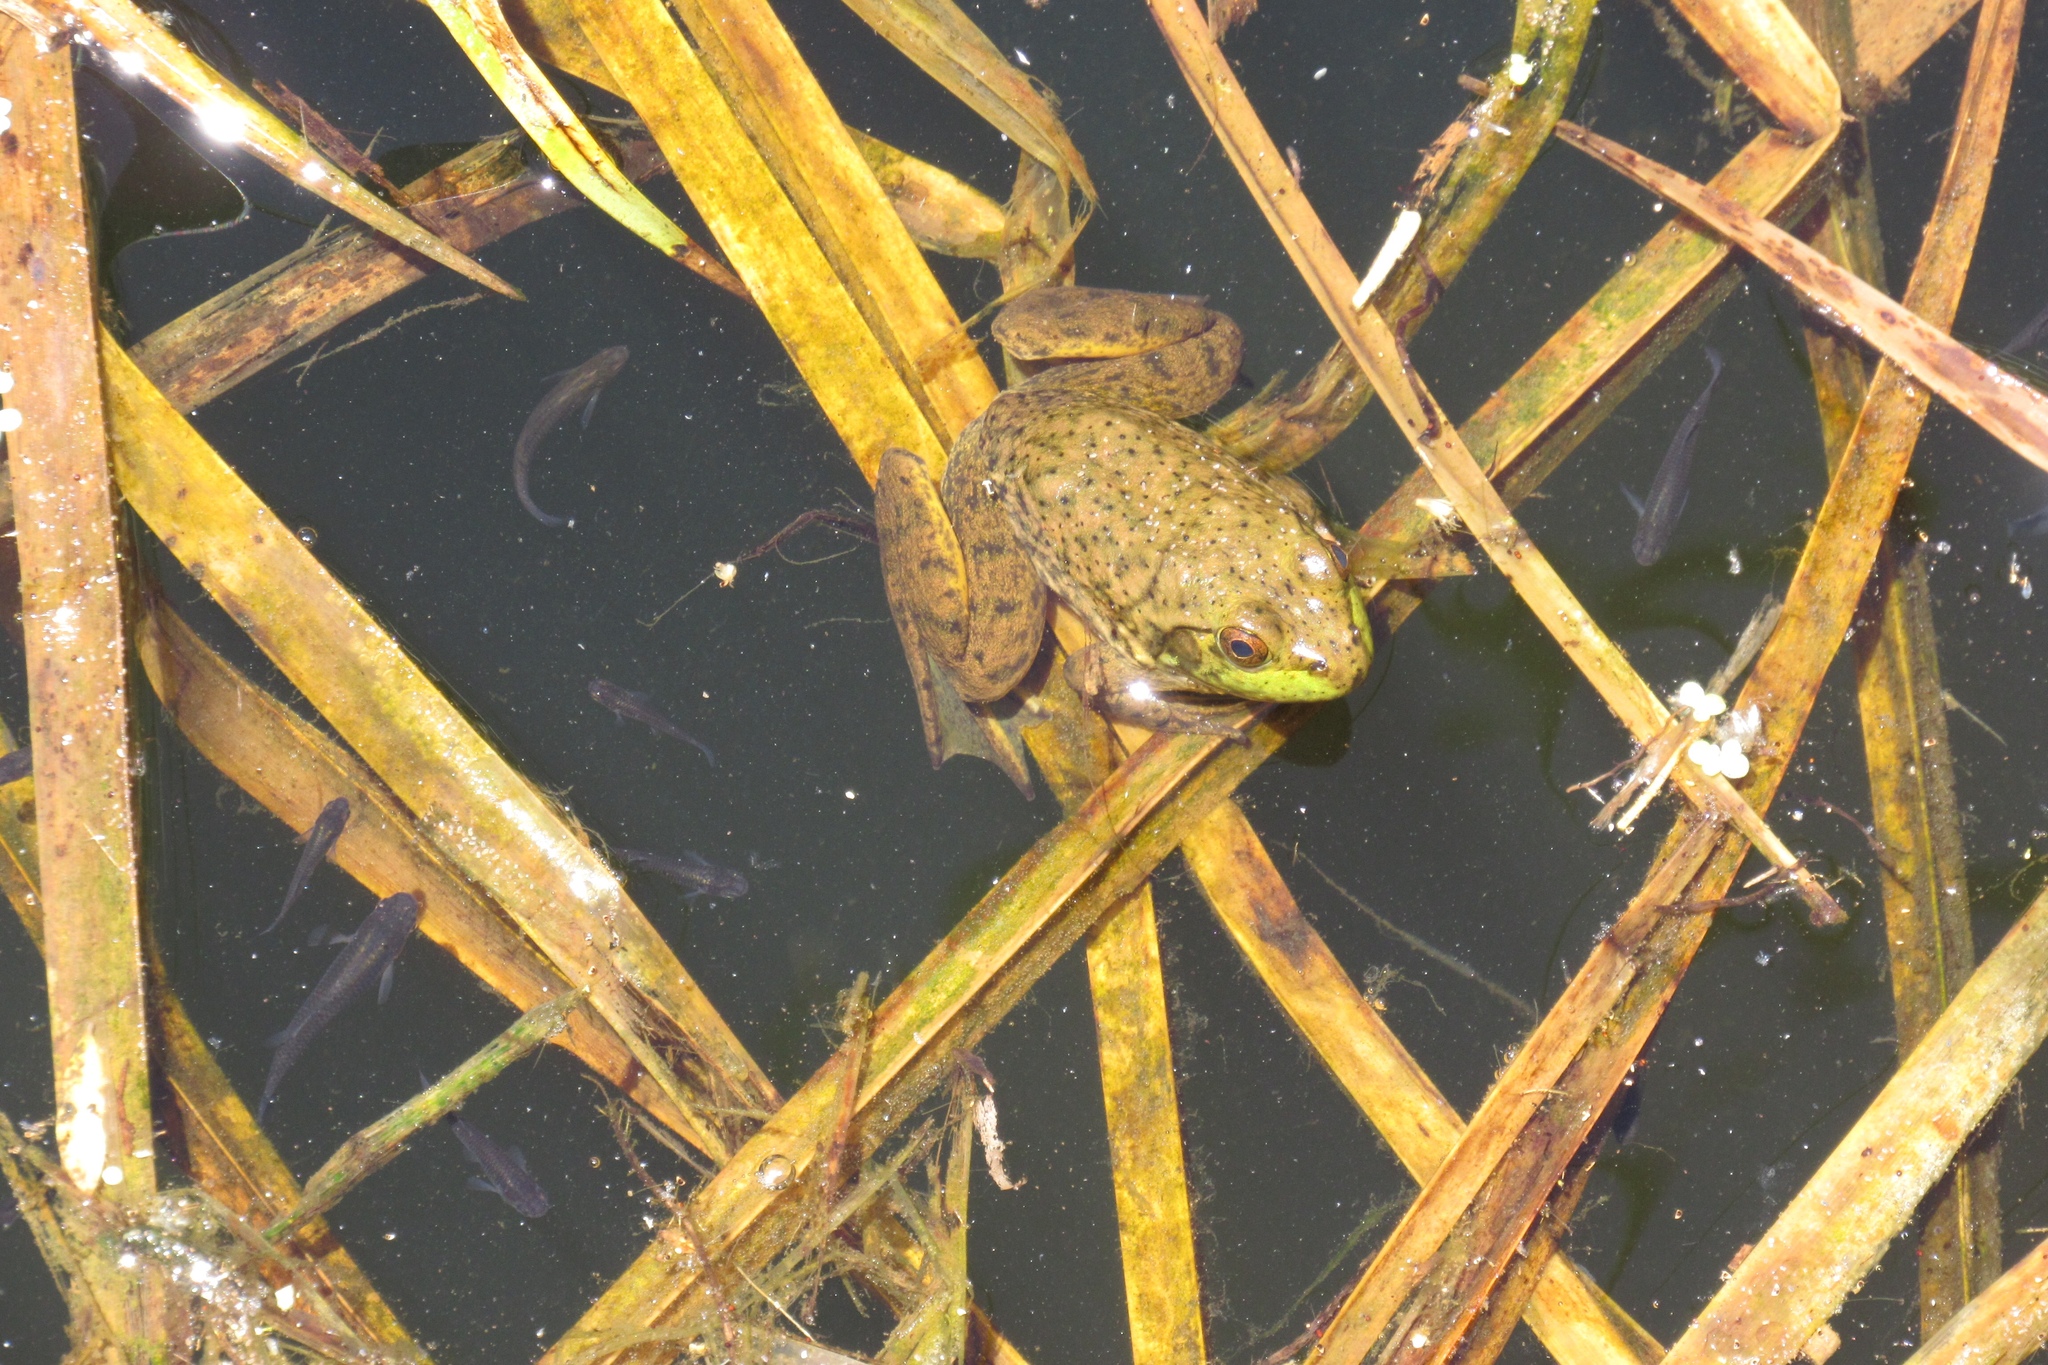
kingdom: Animalia
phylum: Chordata
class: Amphibia
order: Anura
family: Ranidae
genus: Lithobates
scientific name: Lithobates catesbeianus
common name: American bullfrog
